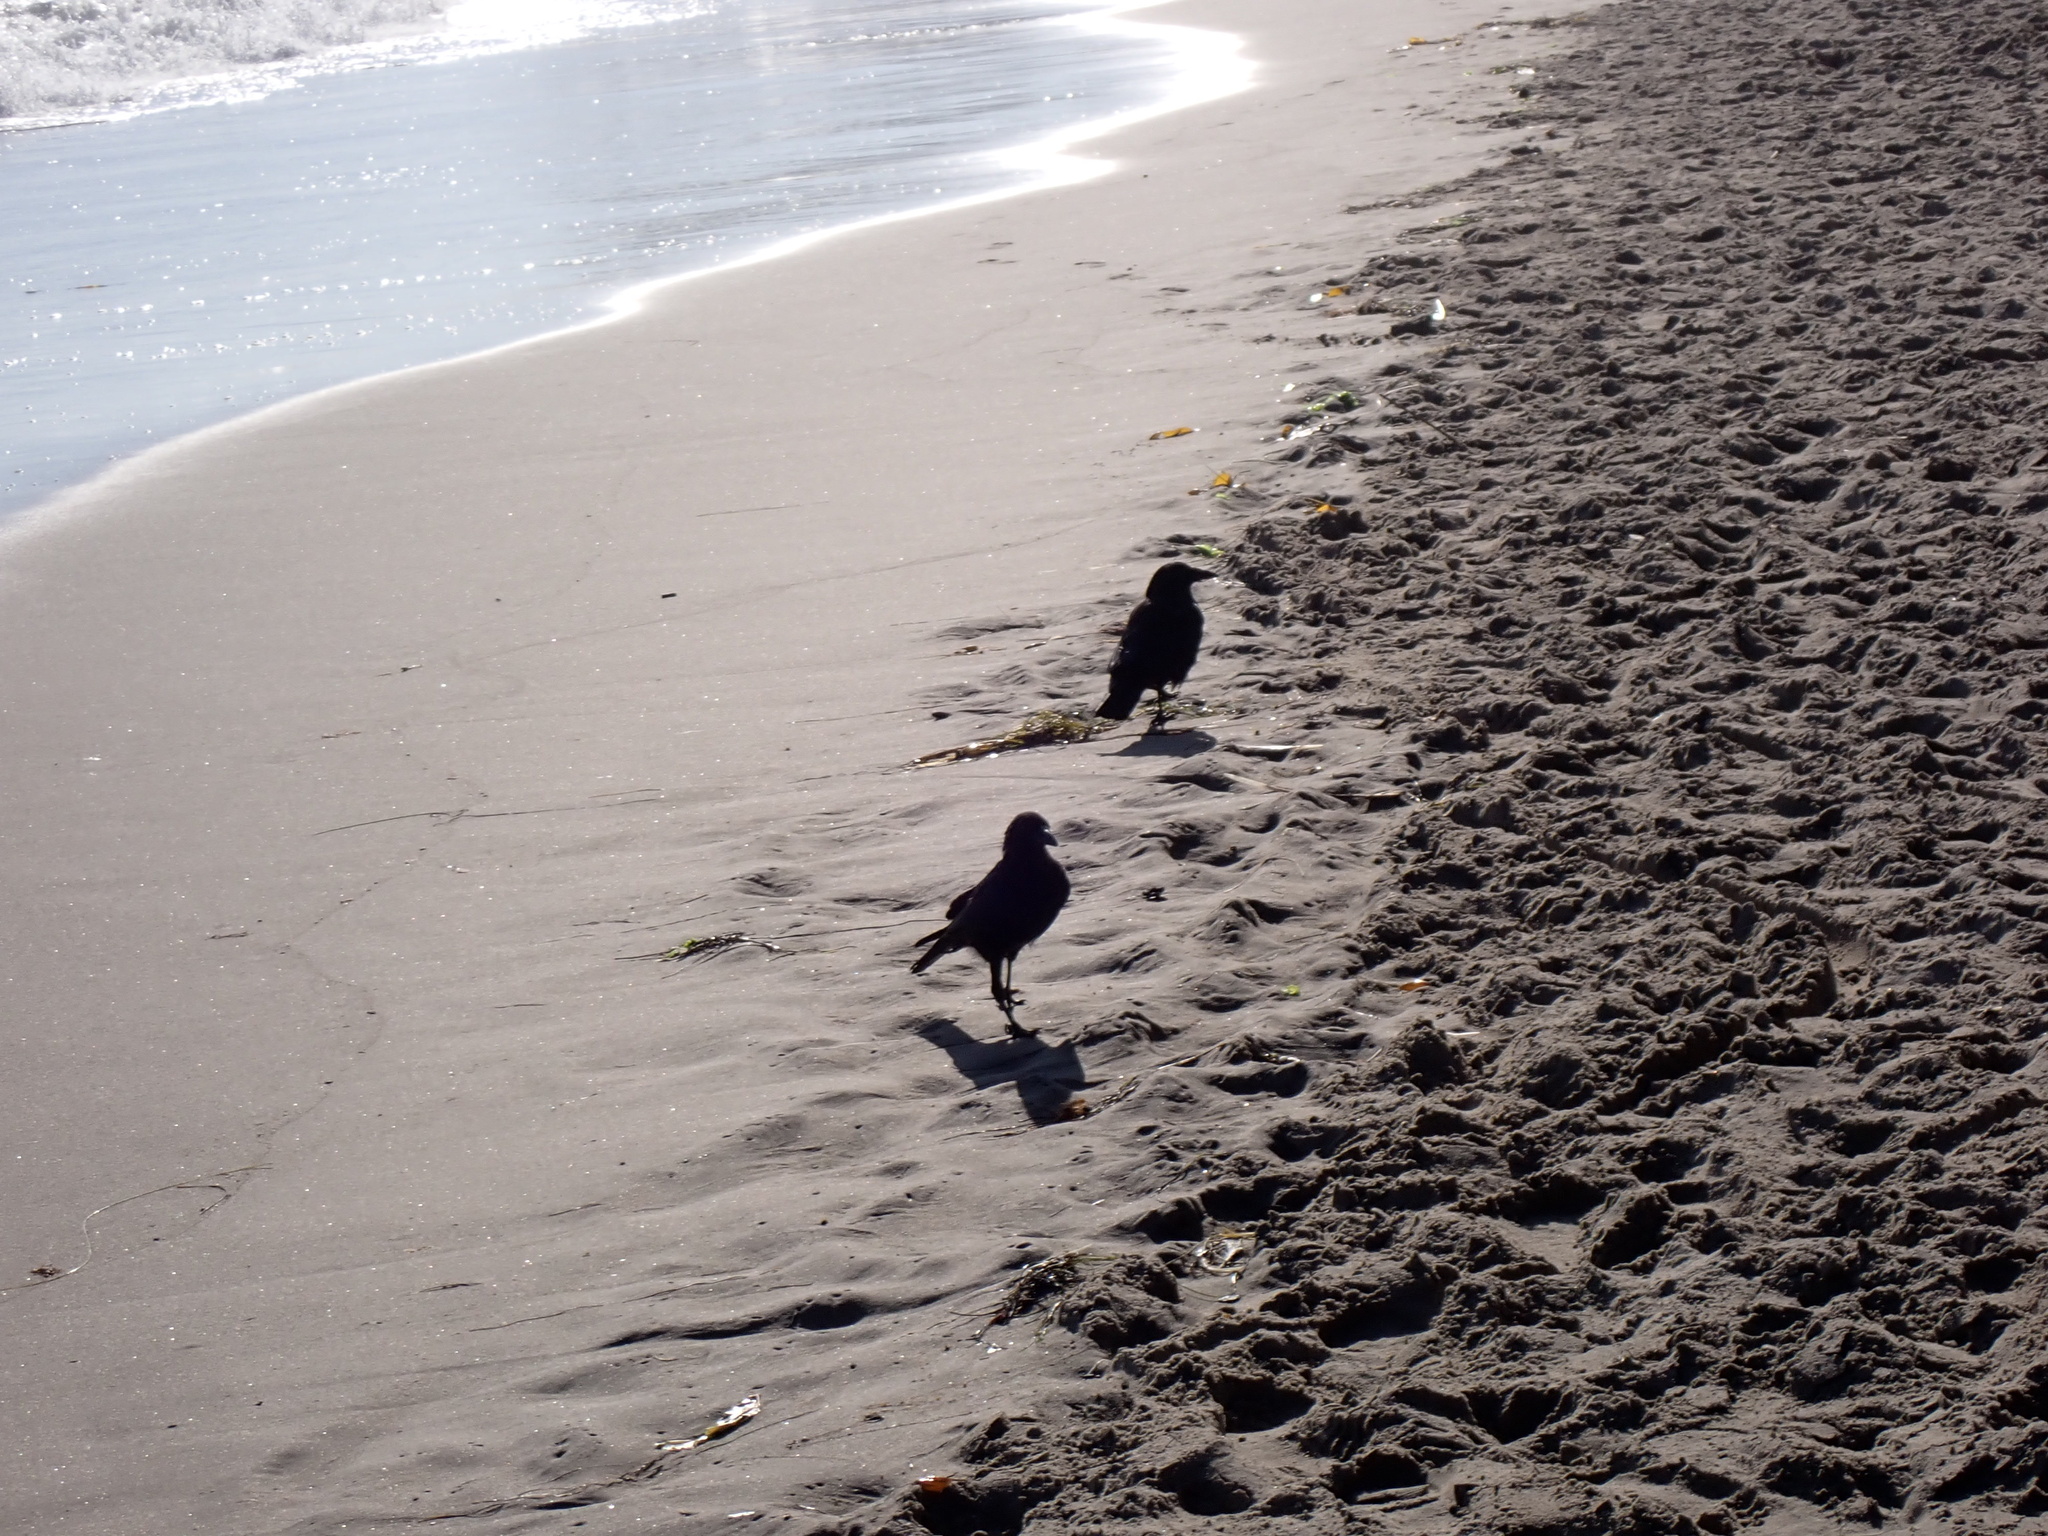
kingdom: Animalia
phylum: Chordata
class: Aves
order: Passeriformes
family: Corvidae
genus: Corvus
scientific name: Corvus brachyrhynchos
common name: American crow
